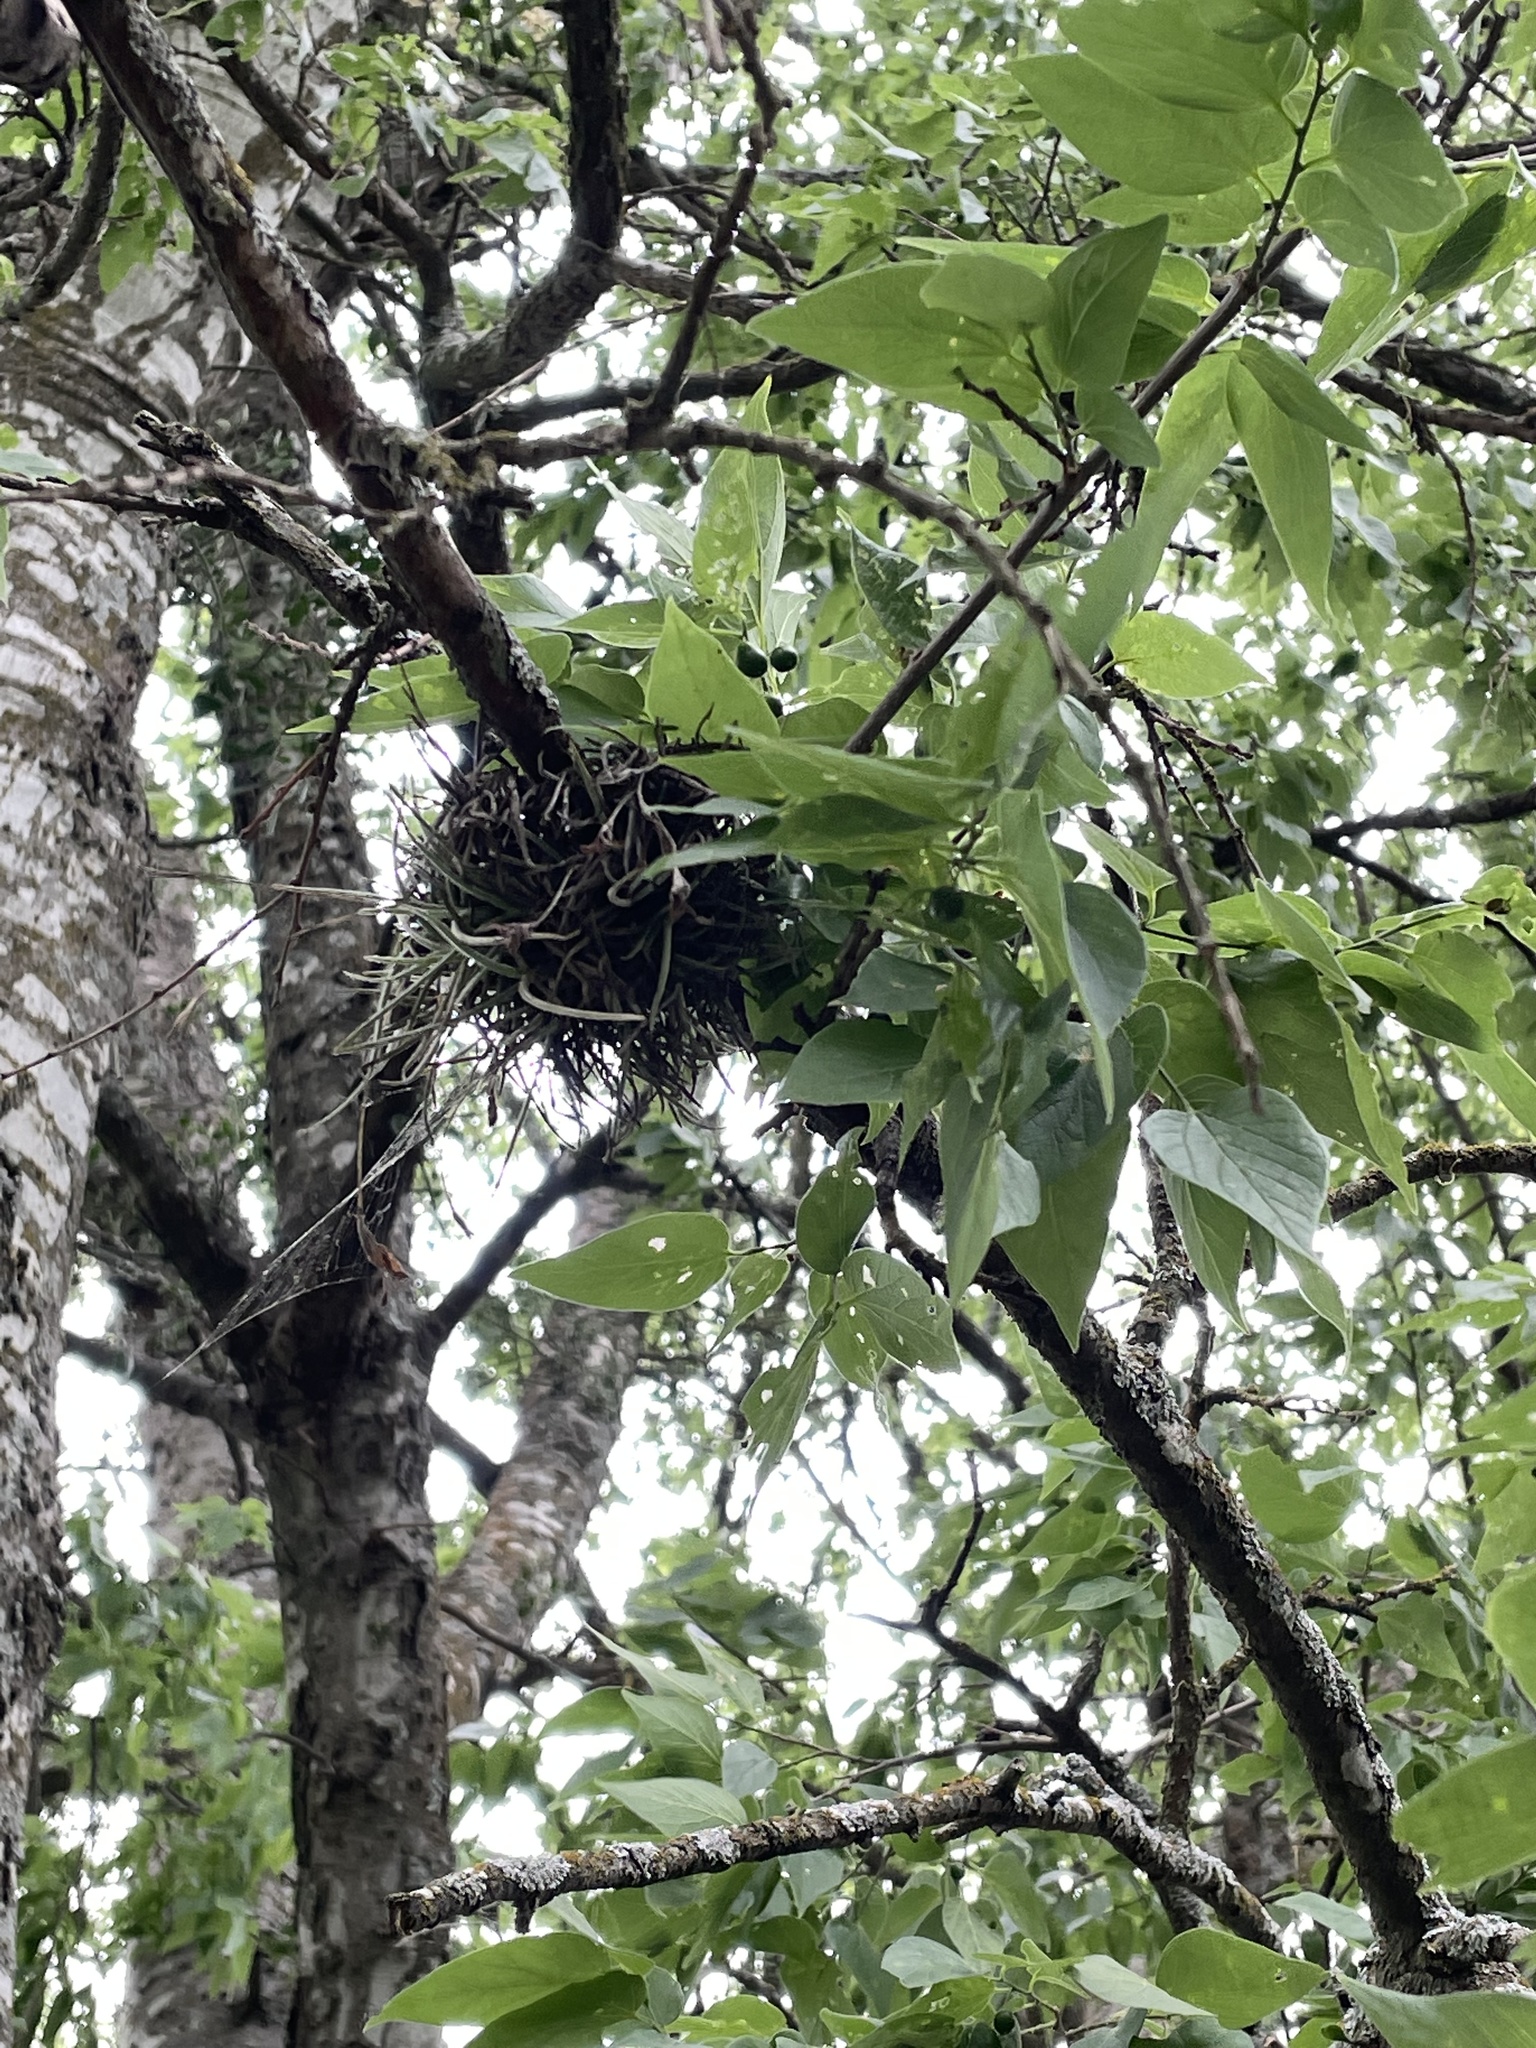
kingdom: Plantae
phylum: Tracheophyta
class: Liliopsida
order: Poales
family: Bromeliaceae
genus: Tillandsia
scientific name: Tillandsia recurvata
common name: Small ballmoss
